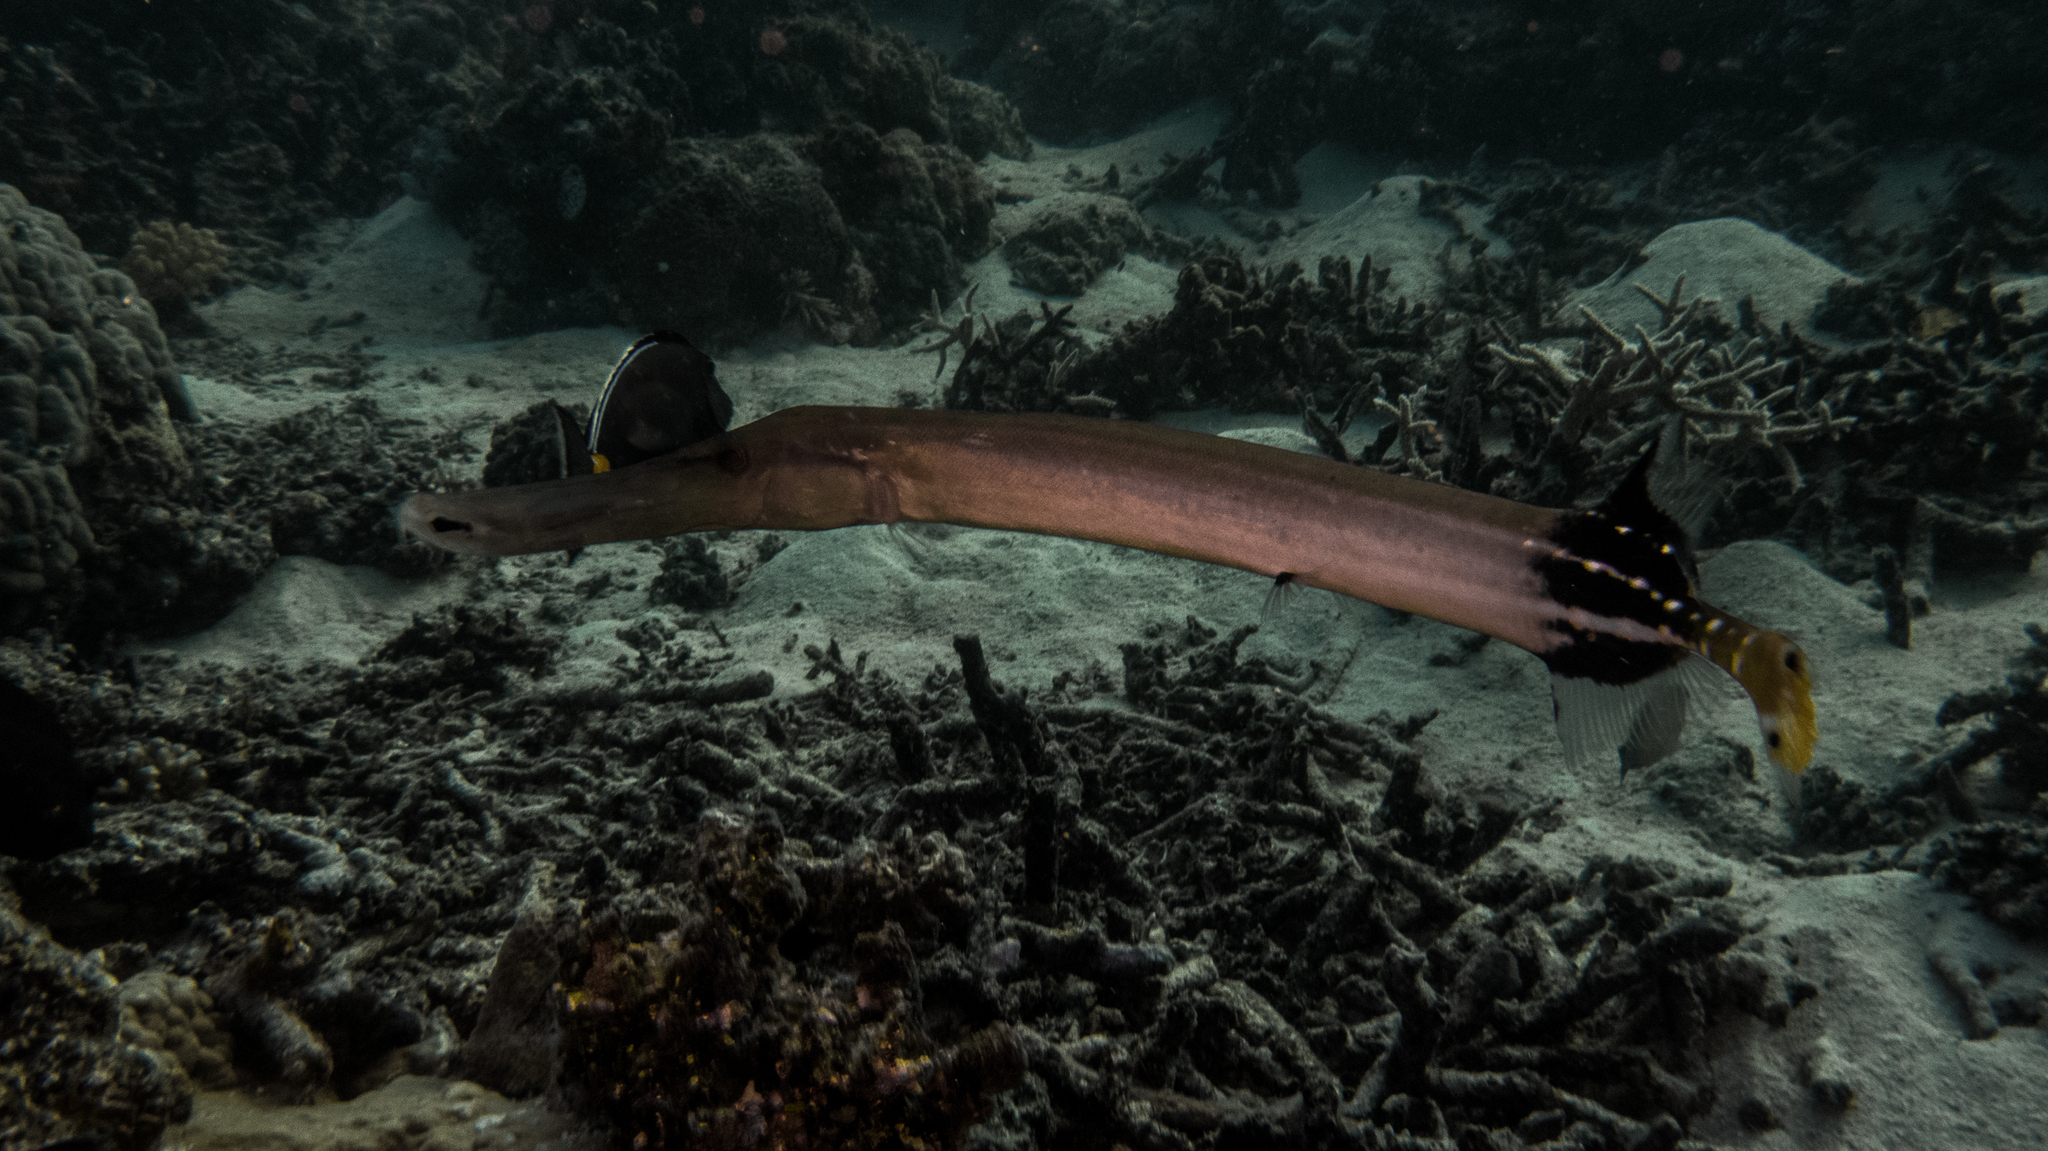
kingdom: Animalia
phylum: Chordata
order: Syngnathiformes
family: Aulostomidae
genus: Aulostomus
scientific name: Aulostomus chinensis
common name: Chinese trumpetfish
